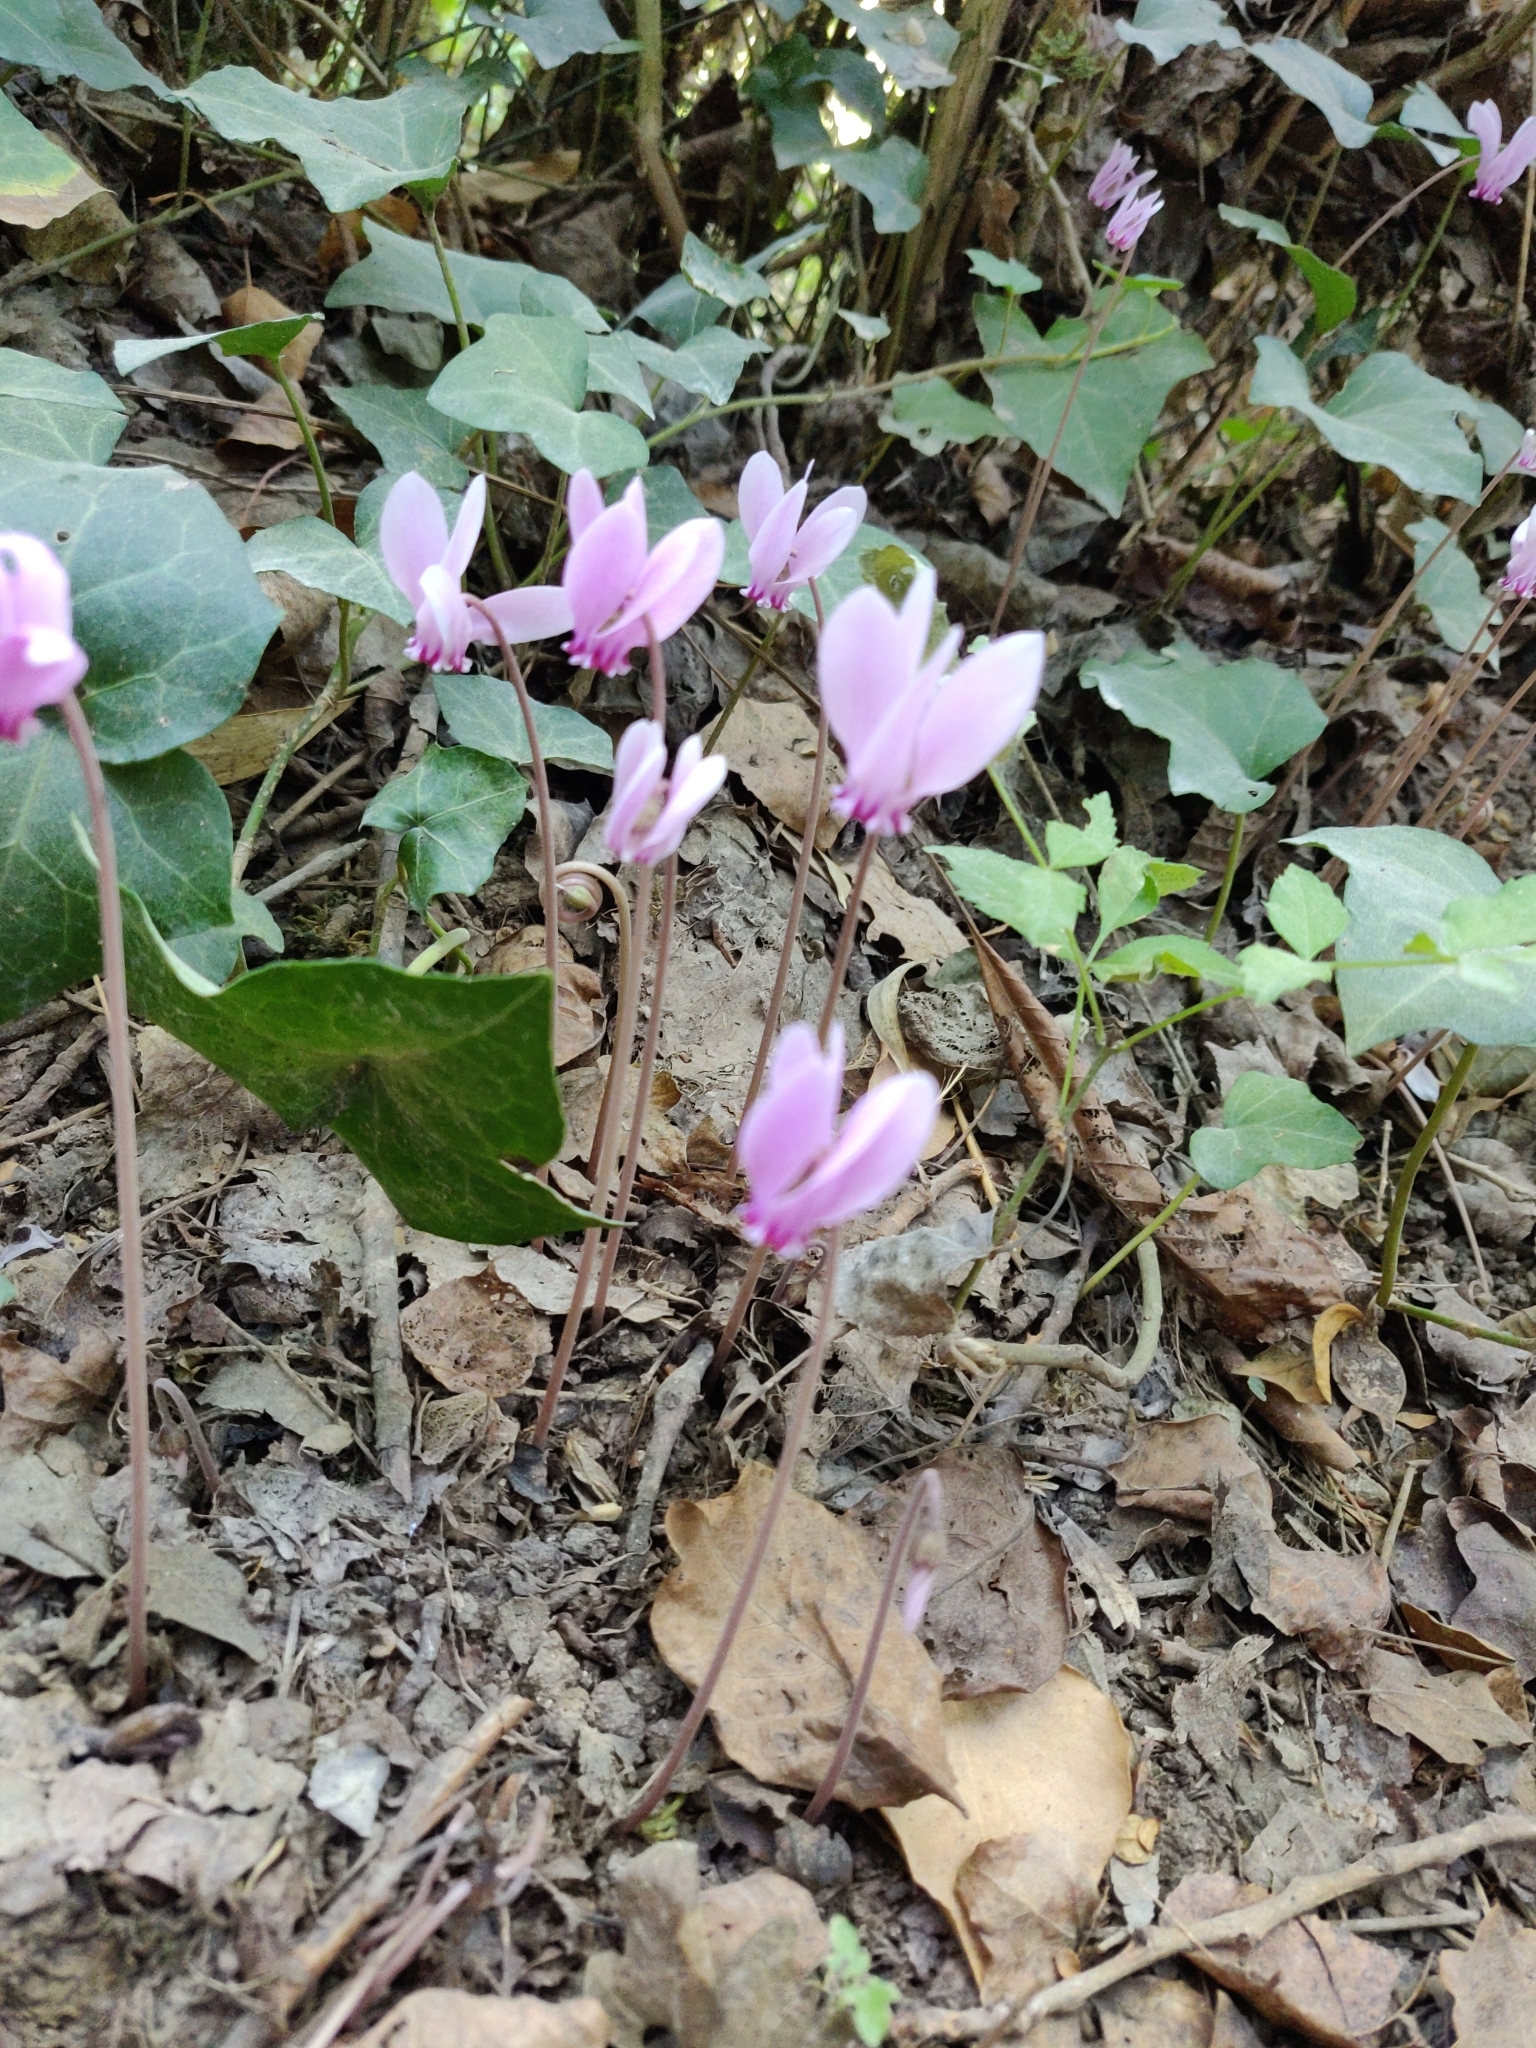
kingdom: Plantae
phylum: Tracheophyta
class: Magnoliopsida
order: Ericales
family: Primulaceae
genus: Cyclamen
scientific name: Cyclamen hederifolium
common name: Sowbread
